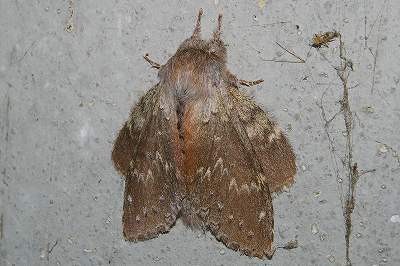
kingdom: Animalia
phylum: Arthropoda
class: Insecta
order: Lepidoptera
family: Notodontidae
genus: Stauropus
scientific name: Stauropus fagi
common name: Lobster moth
